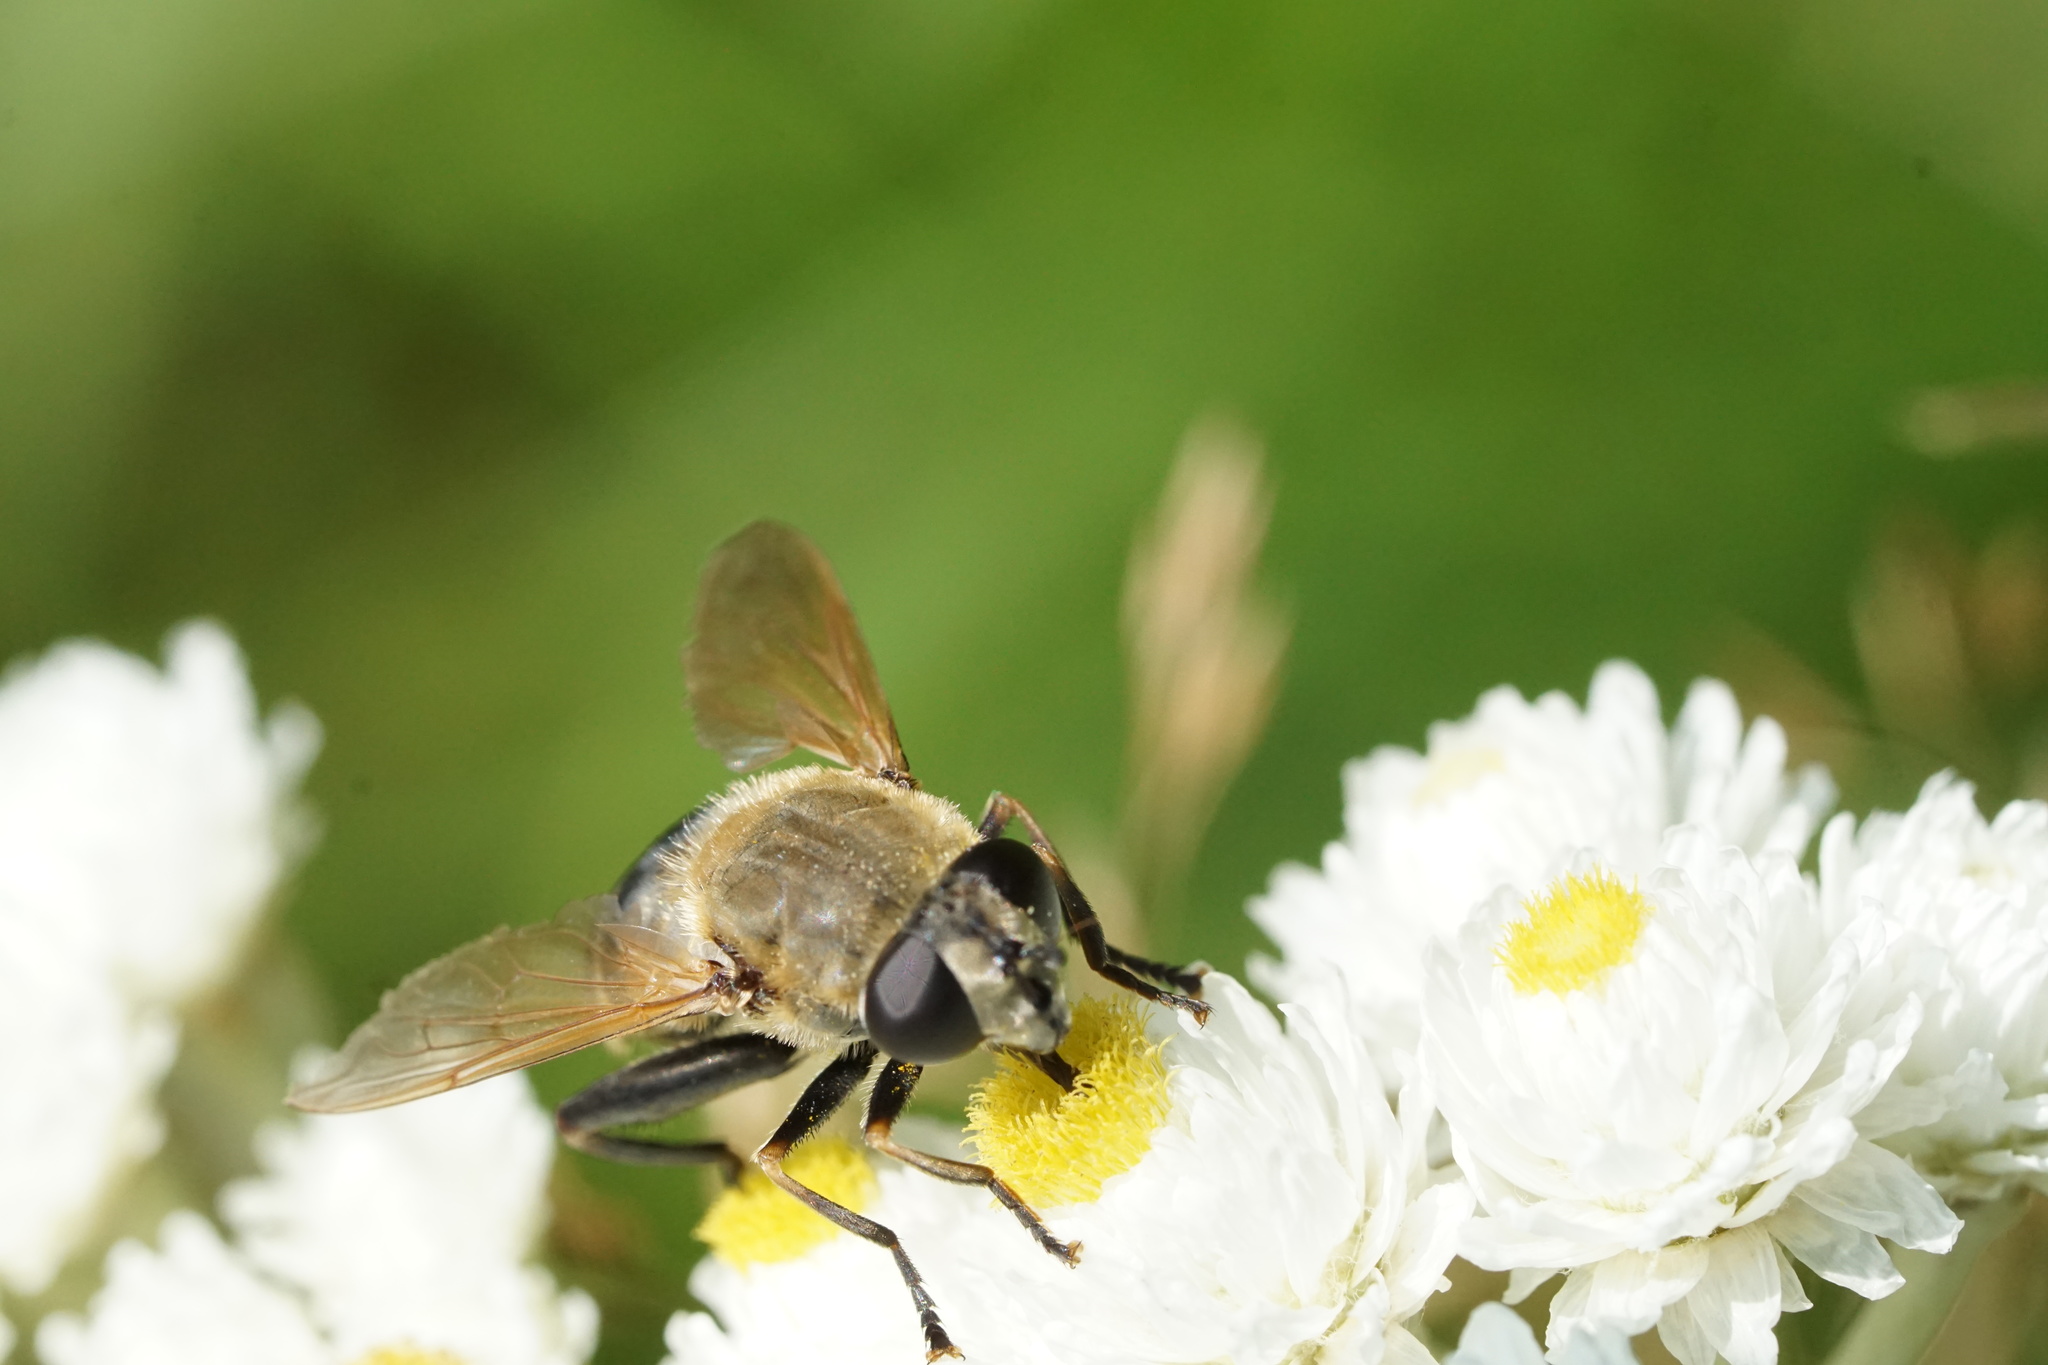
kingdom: Animalia
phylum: Arthropoda
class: Insecta
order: Diptera
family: Syrphidae
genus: Polydontomyia
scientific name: Polydontomyia curvipes
